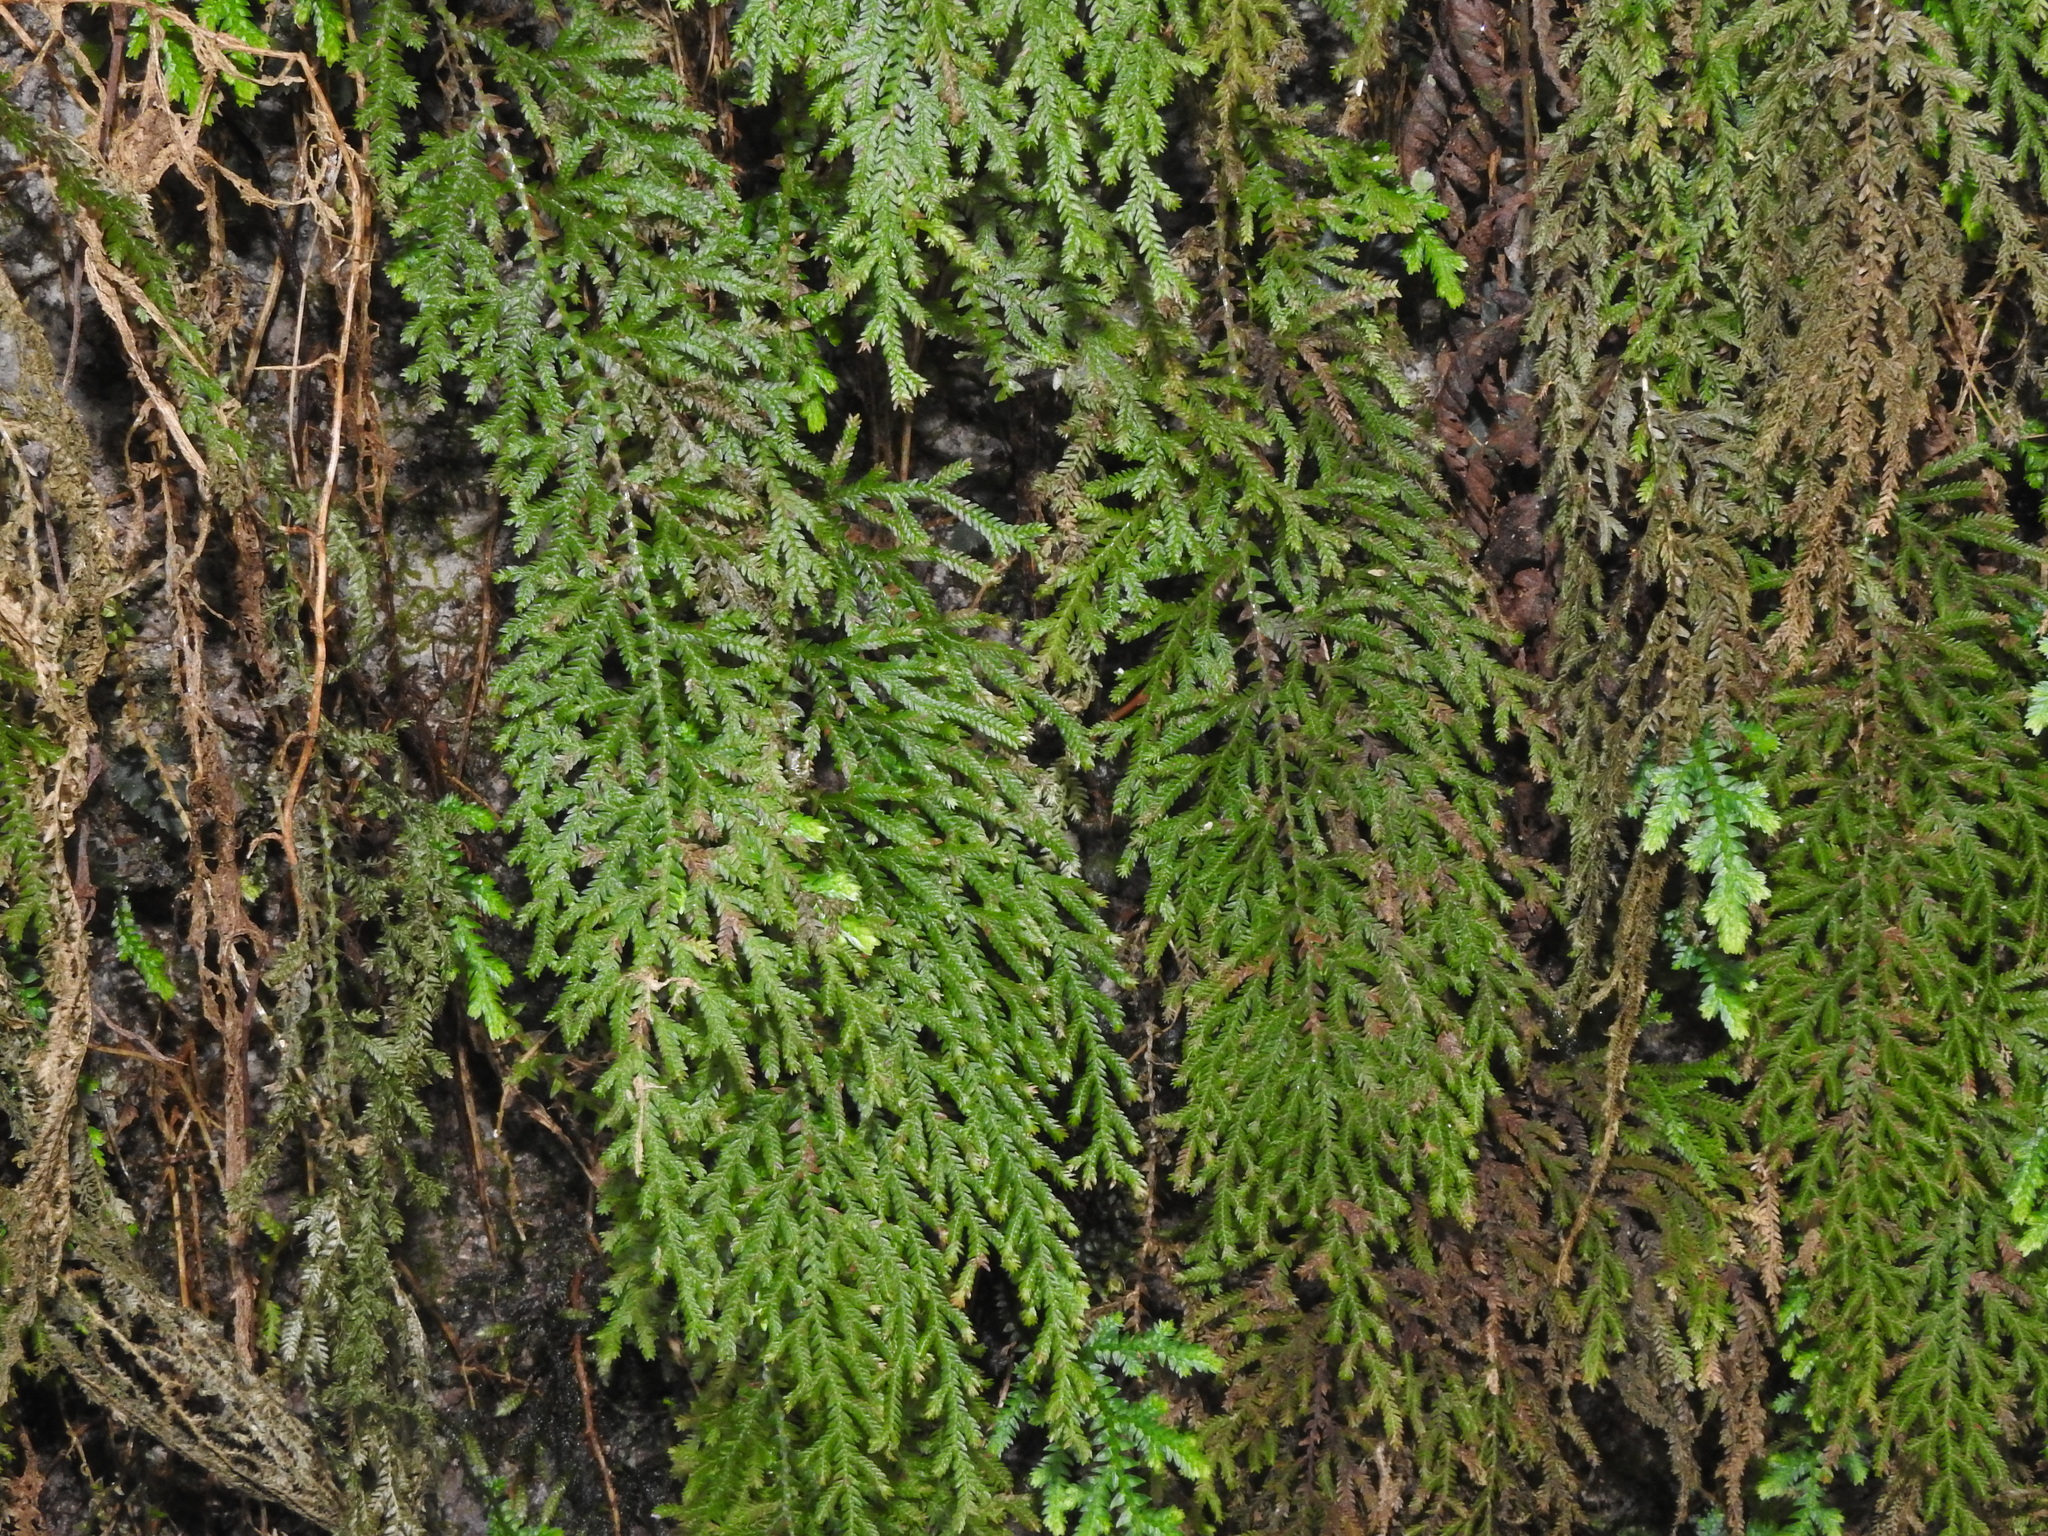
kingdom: Plantae
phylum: Tracheophyta
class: Lycopodiopsida
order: Selaginellales
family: Selaginellaceae
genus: Selaginella
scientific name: Selaginella labordei
